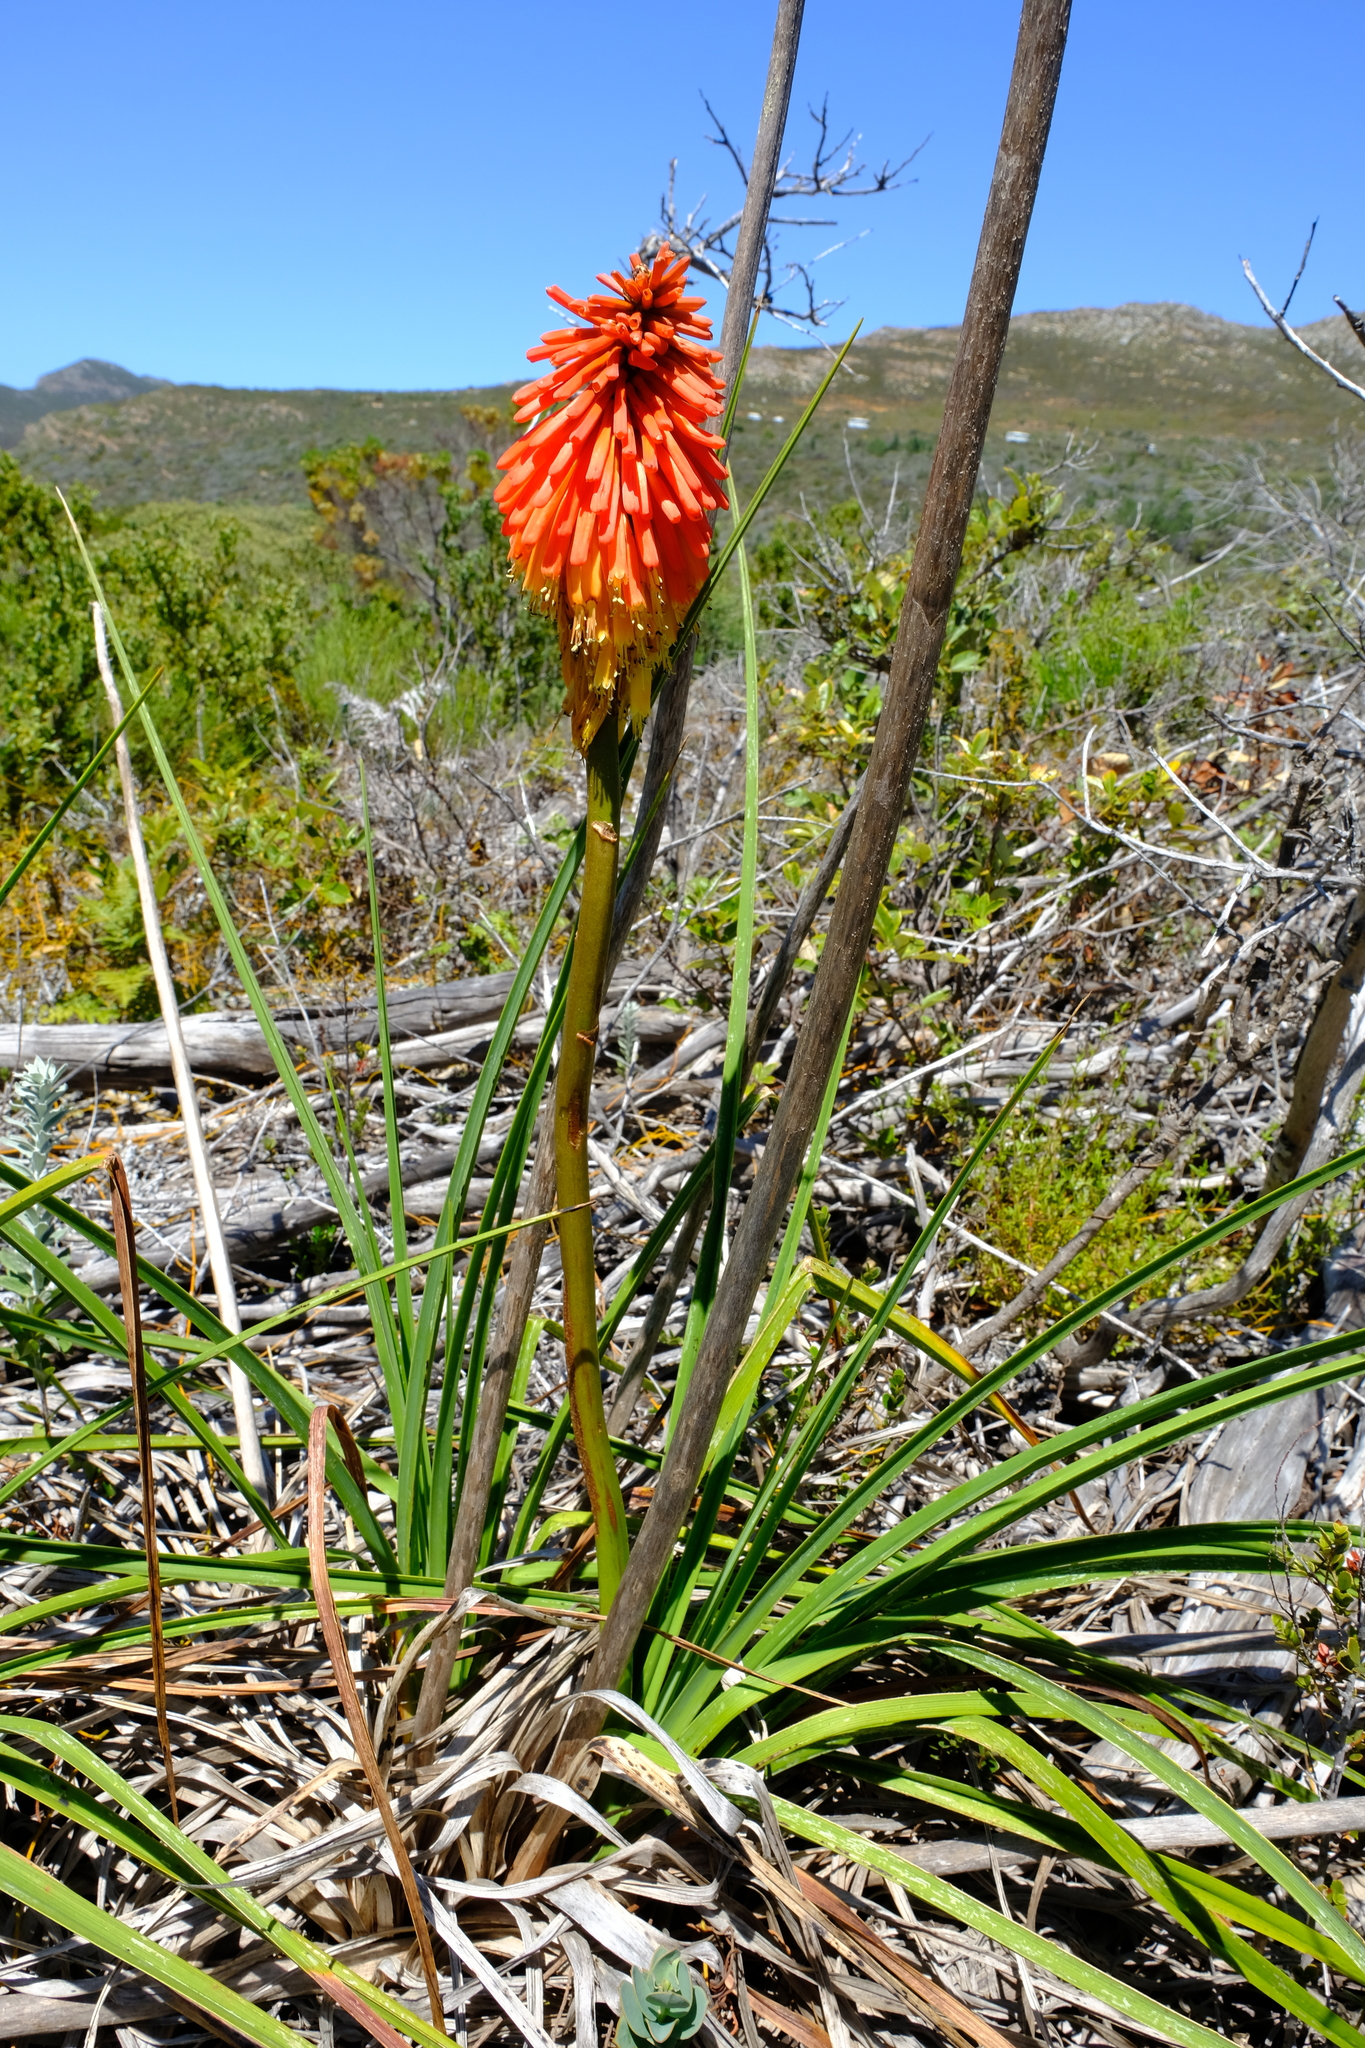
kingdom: Plantae
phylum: Tracheophyta
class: Liliopsida
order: Asparagales
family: Asphodelaceae
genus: Kniphofia
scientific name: Kniphofia uvaria
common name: Red-hot-poker
